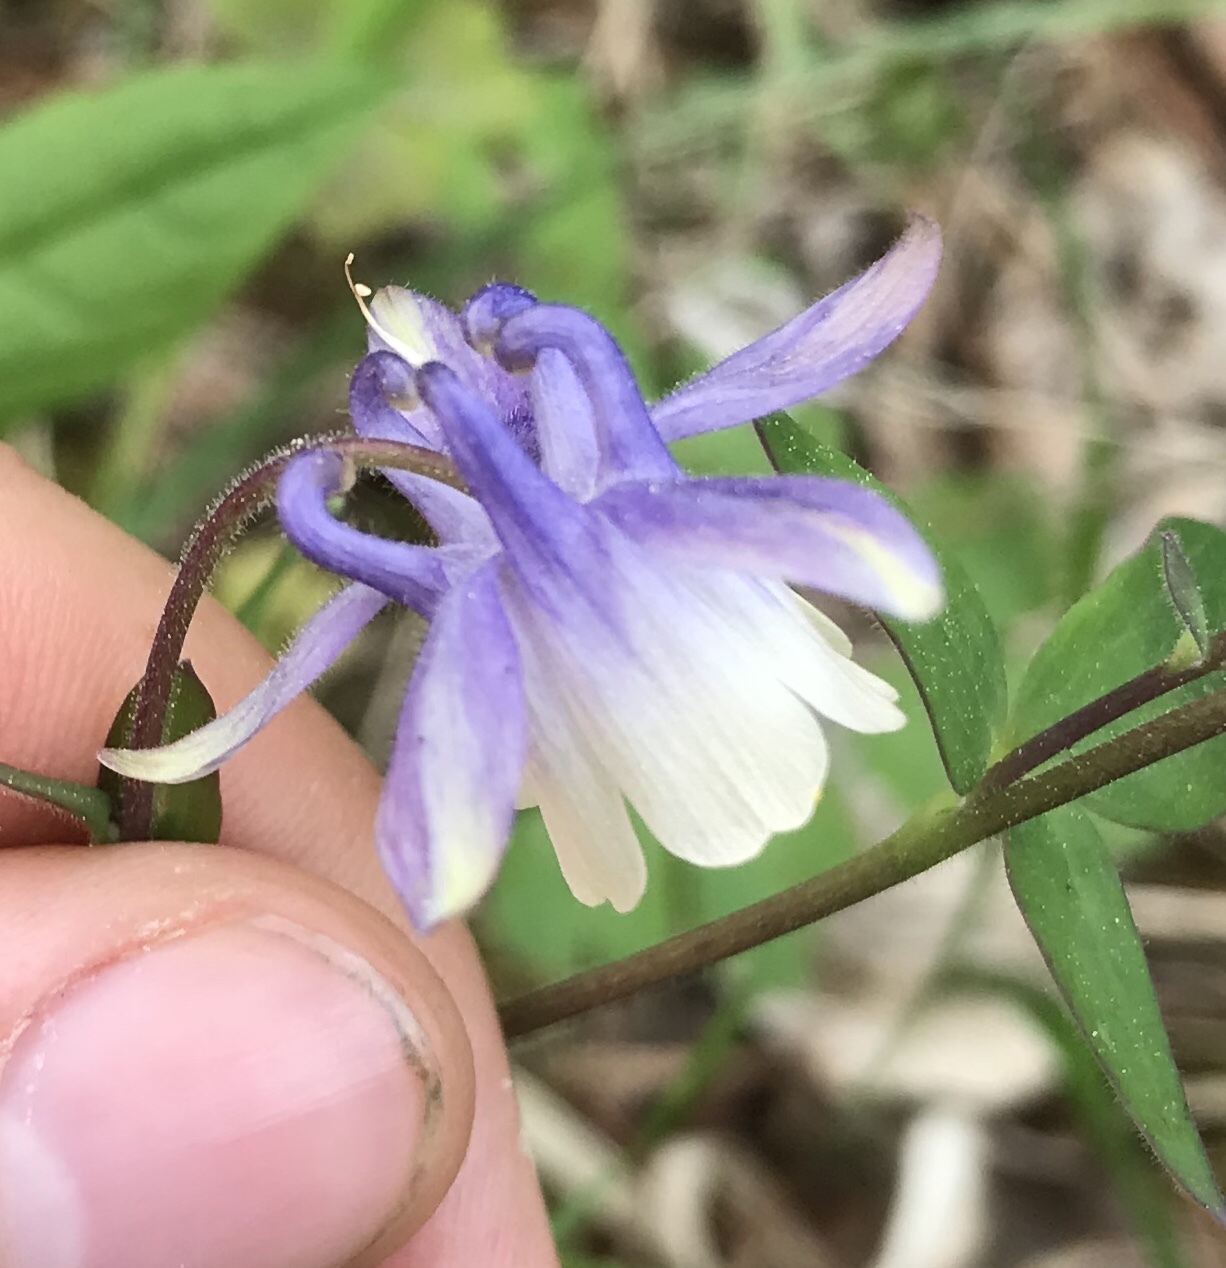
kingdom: Plantae
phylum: Tracheophyta
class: Magnoliopsida
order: Ranunculales
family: Ranunculaceae
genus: Aquilegia
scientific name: Aquilegia brevistyla
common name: Yukon columbine
